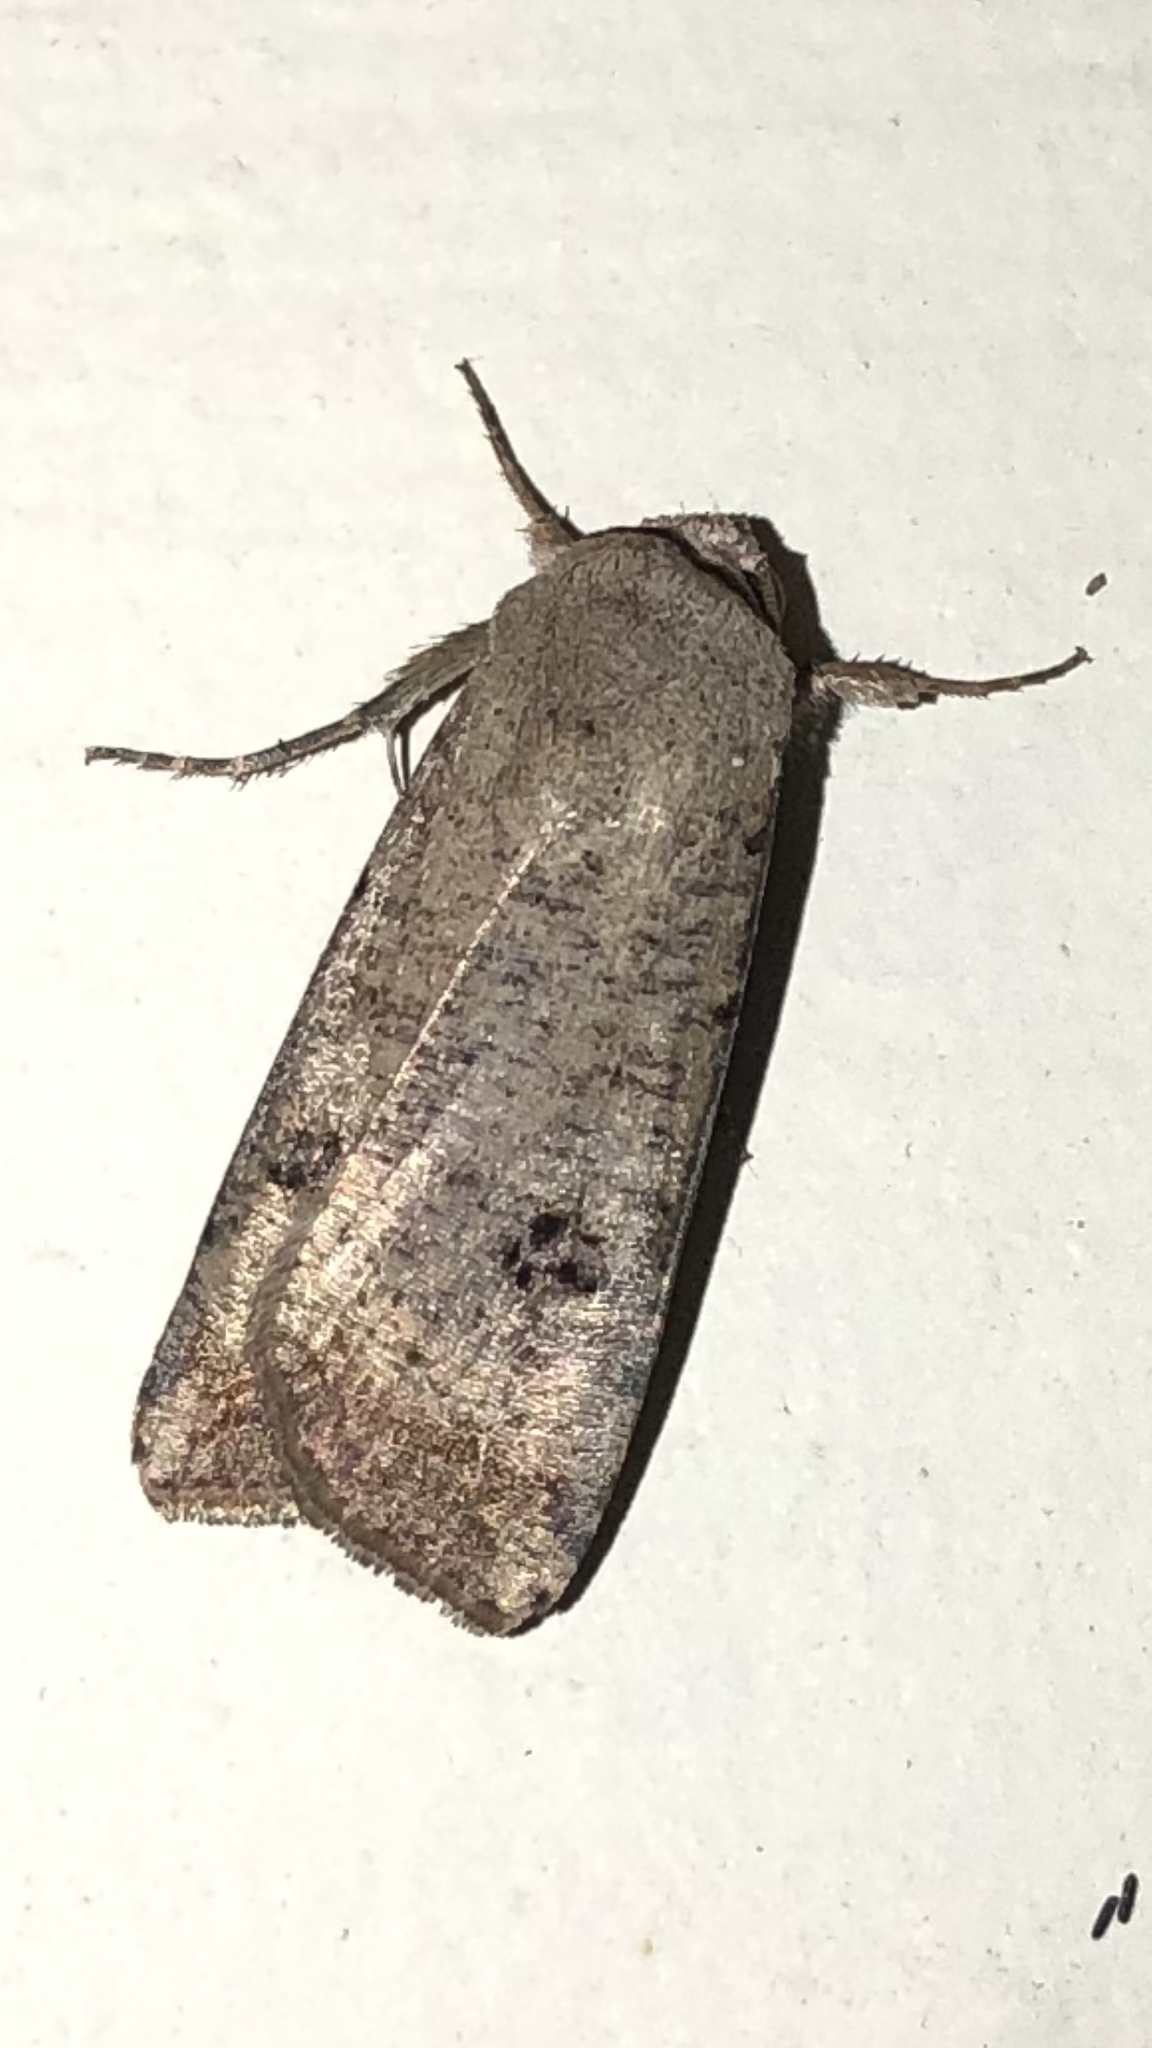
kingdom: Animalia
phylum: Arthropoda
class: Insecta
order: Lepidoptera
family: Noctuidae
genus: Anicla
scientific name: Anicla infecta
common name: Green cutworm
